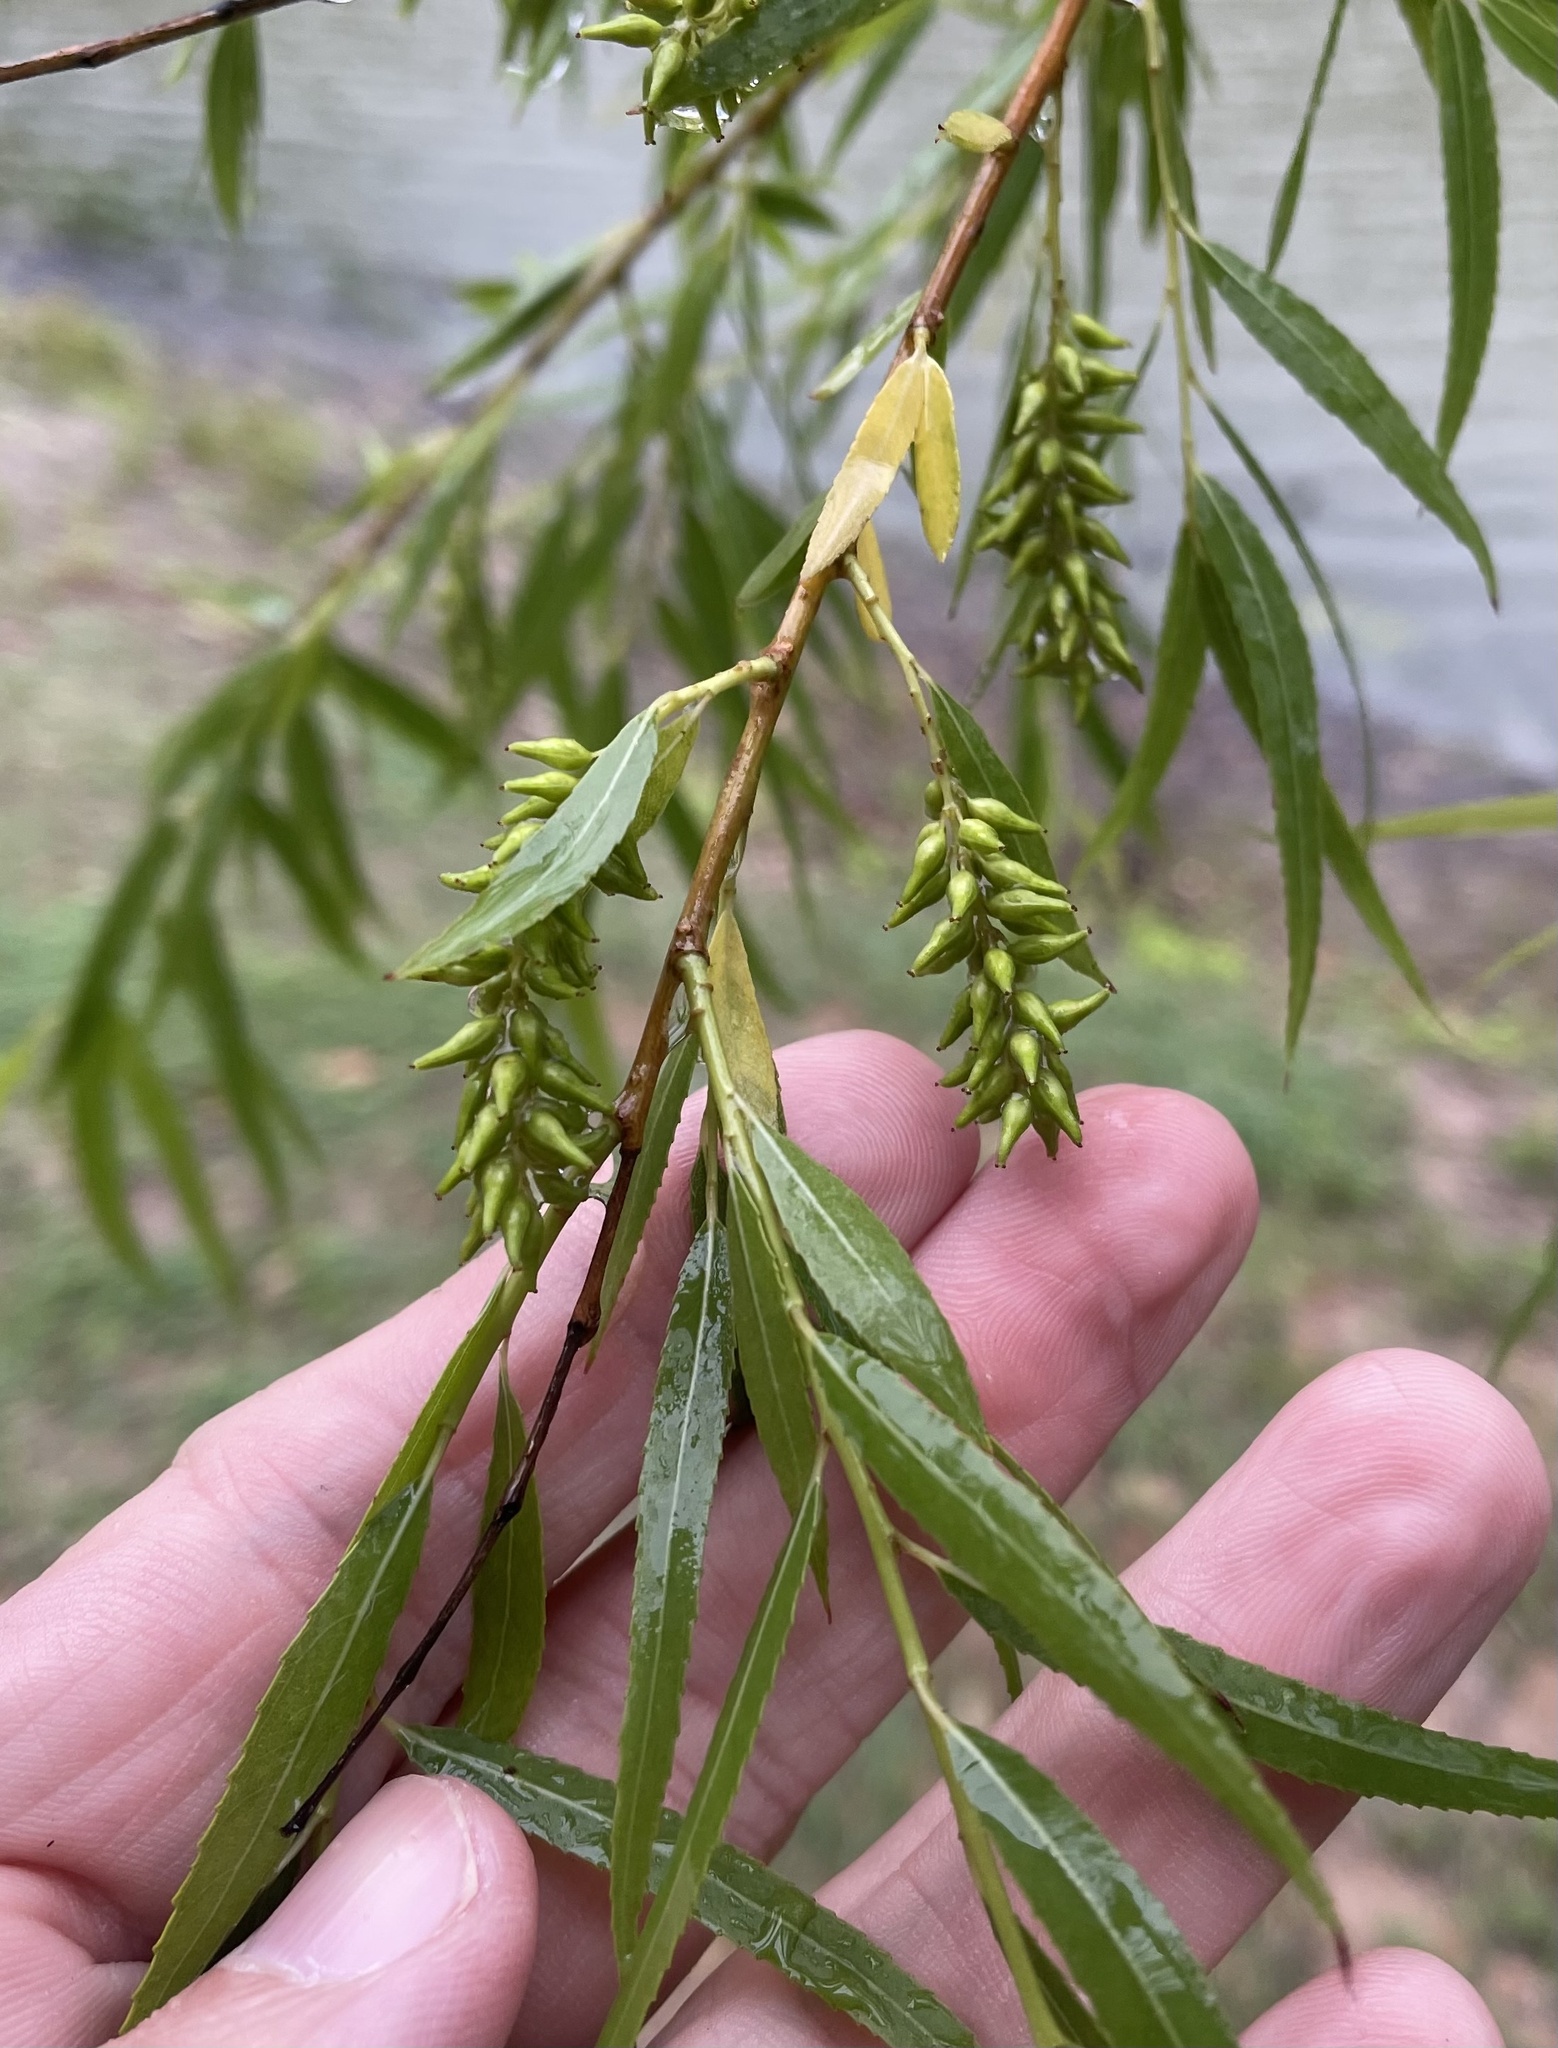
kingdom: Plantae
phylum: Tracheophyta
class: Magnoliopsida
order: Malpighiales
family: Salicaceae
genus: Salix
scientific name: Salix nigra
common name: Black willow
